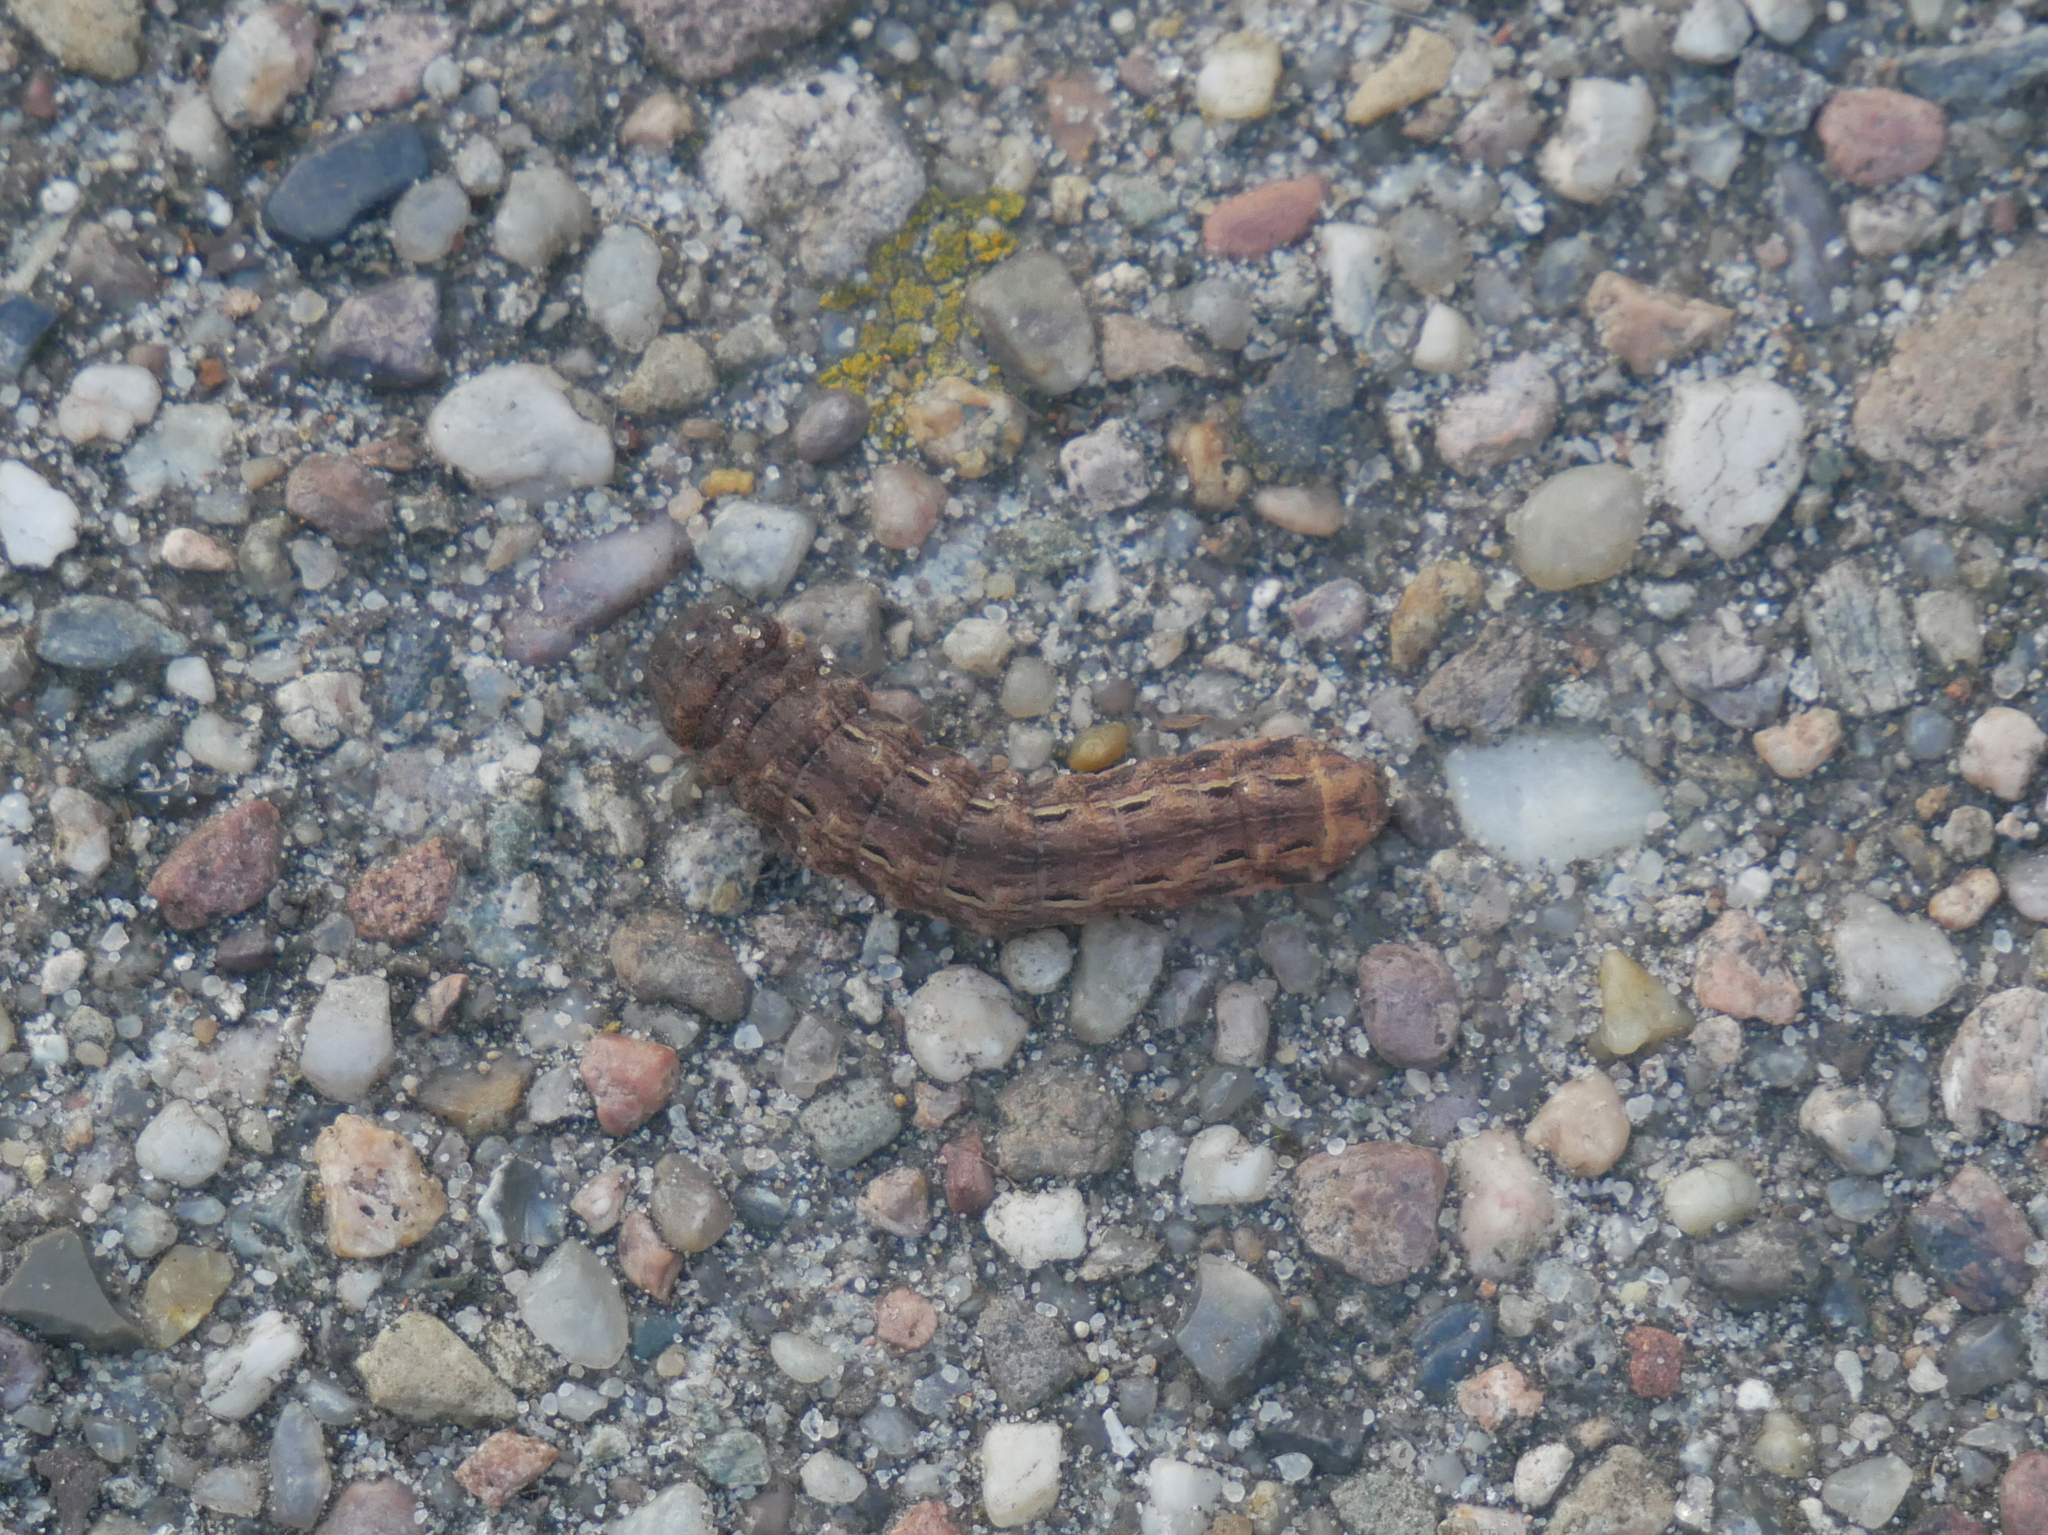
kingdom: Animalia
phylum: Arthropoda
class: Insecta
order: Lepidoptera
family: Noctuidae
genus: Noctua
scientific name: Noctua pronuba
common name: Large yellow underwing
